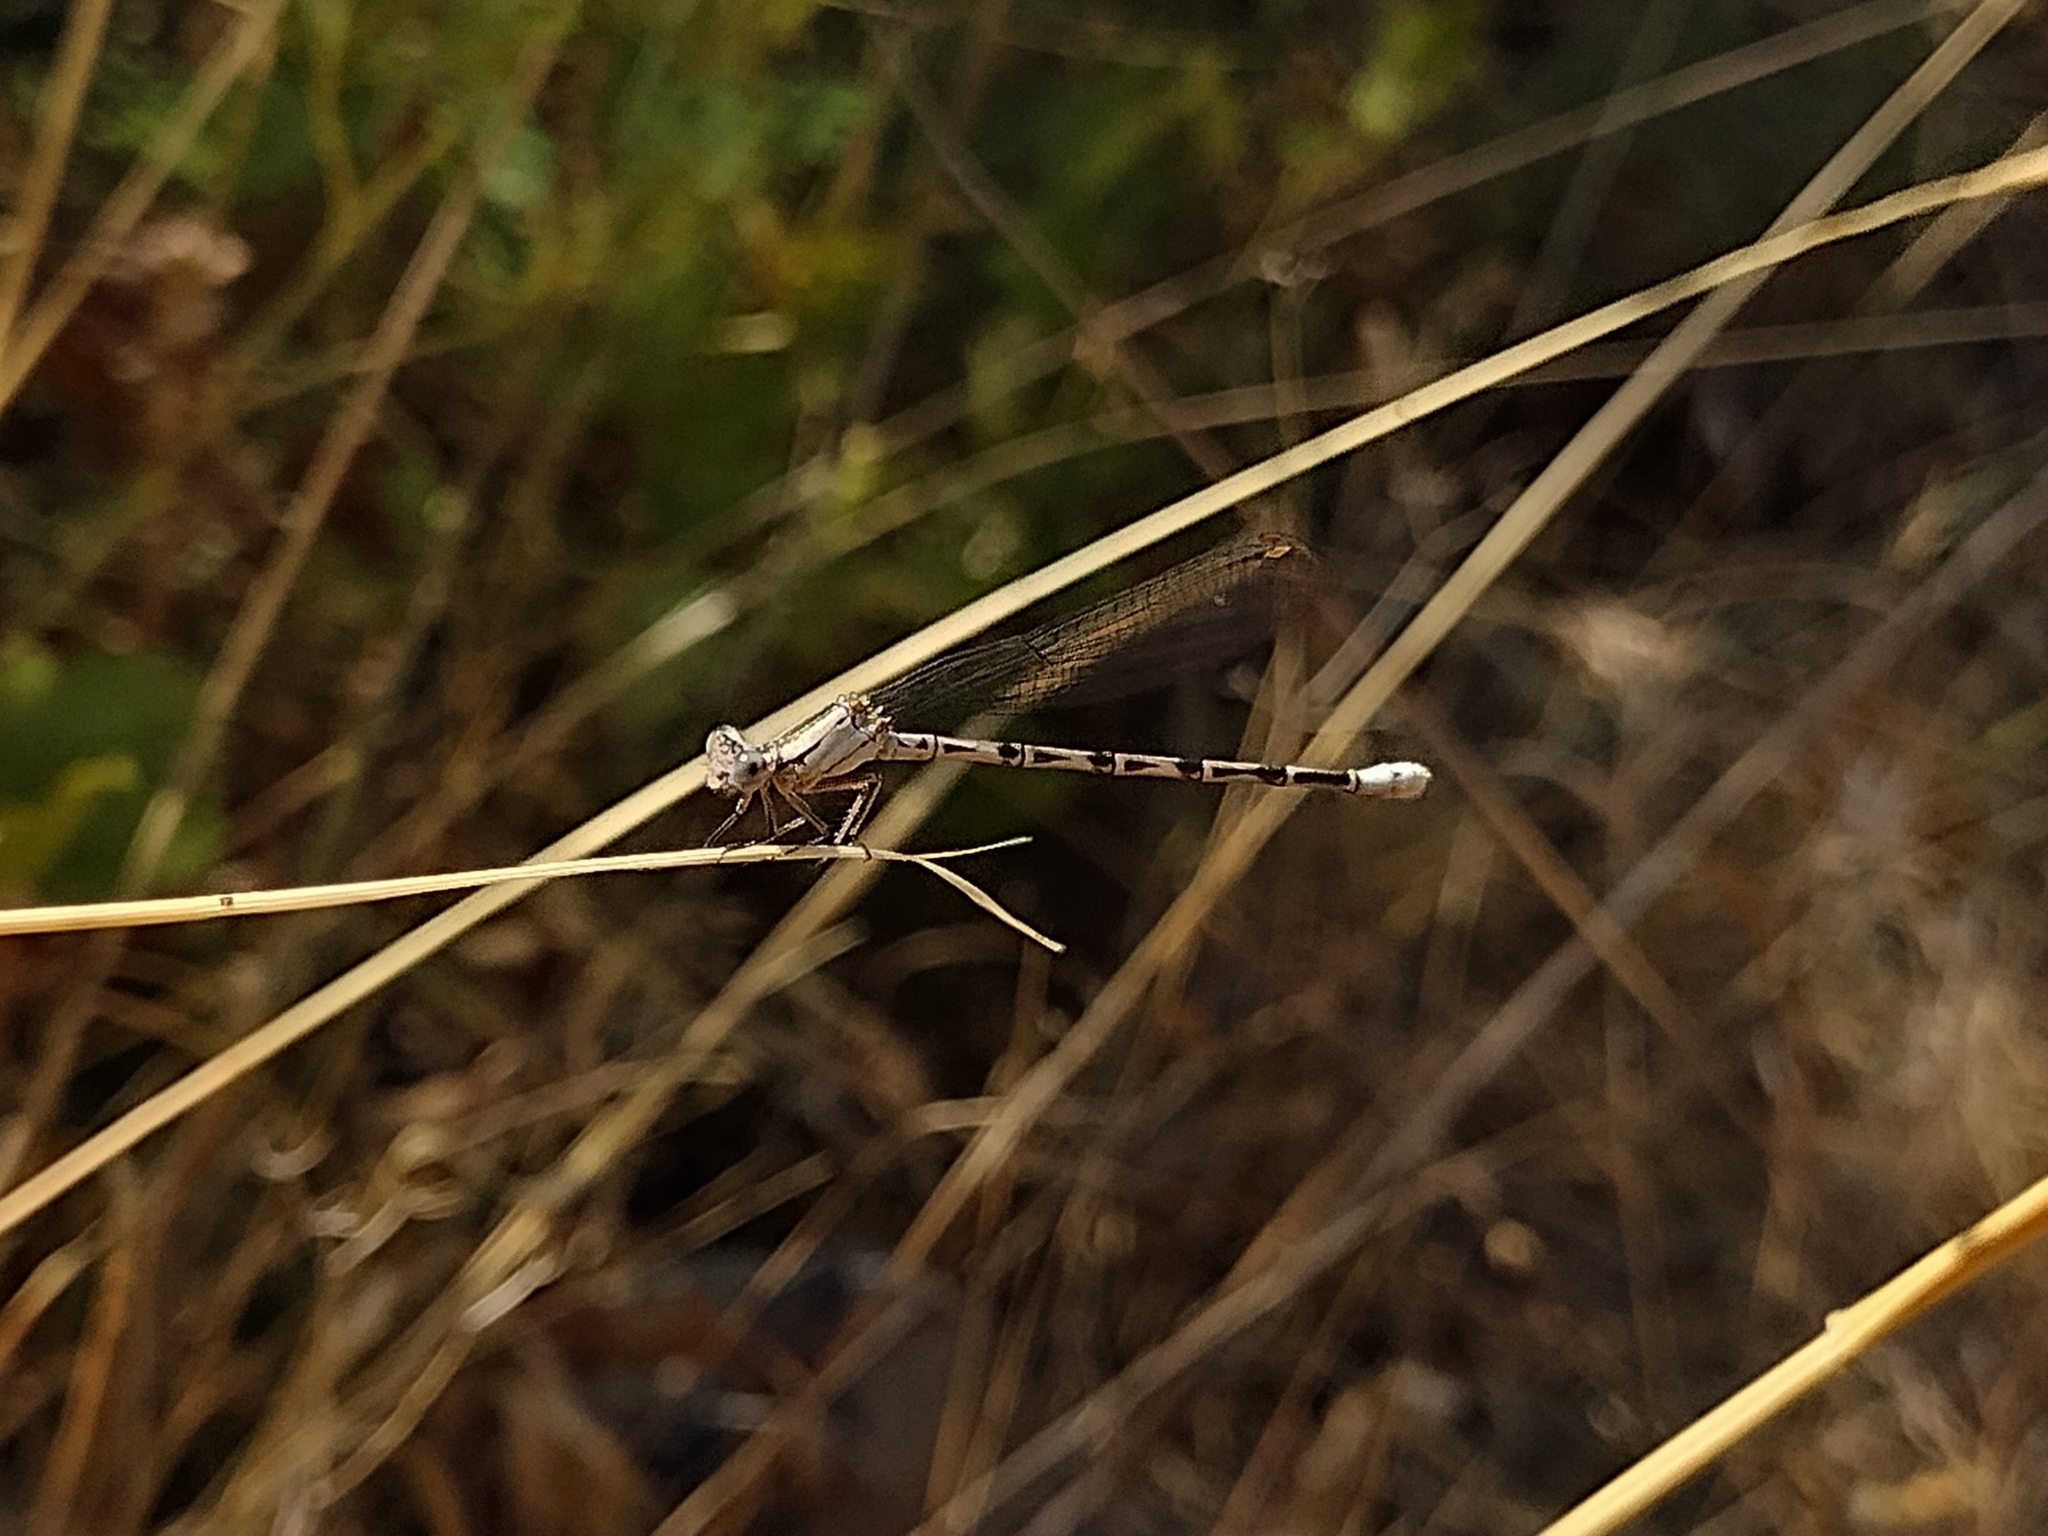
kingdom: Animalia
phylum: Arthropoda
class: Insecta
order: Odonata
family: Coenagrionidae
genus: Argia
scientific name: Argia vivida
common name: Vivid dancer
